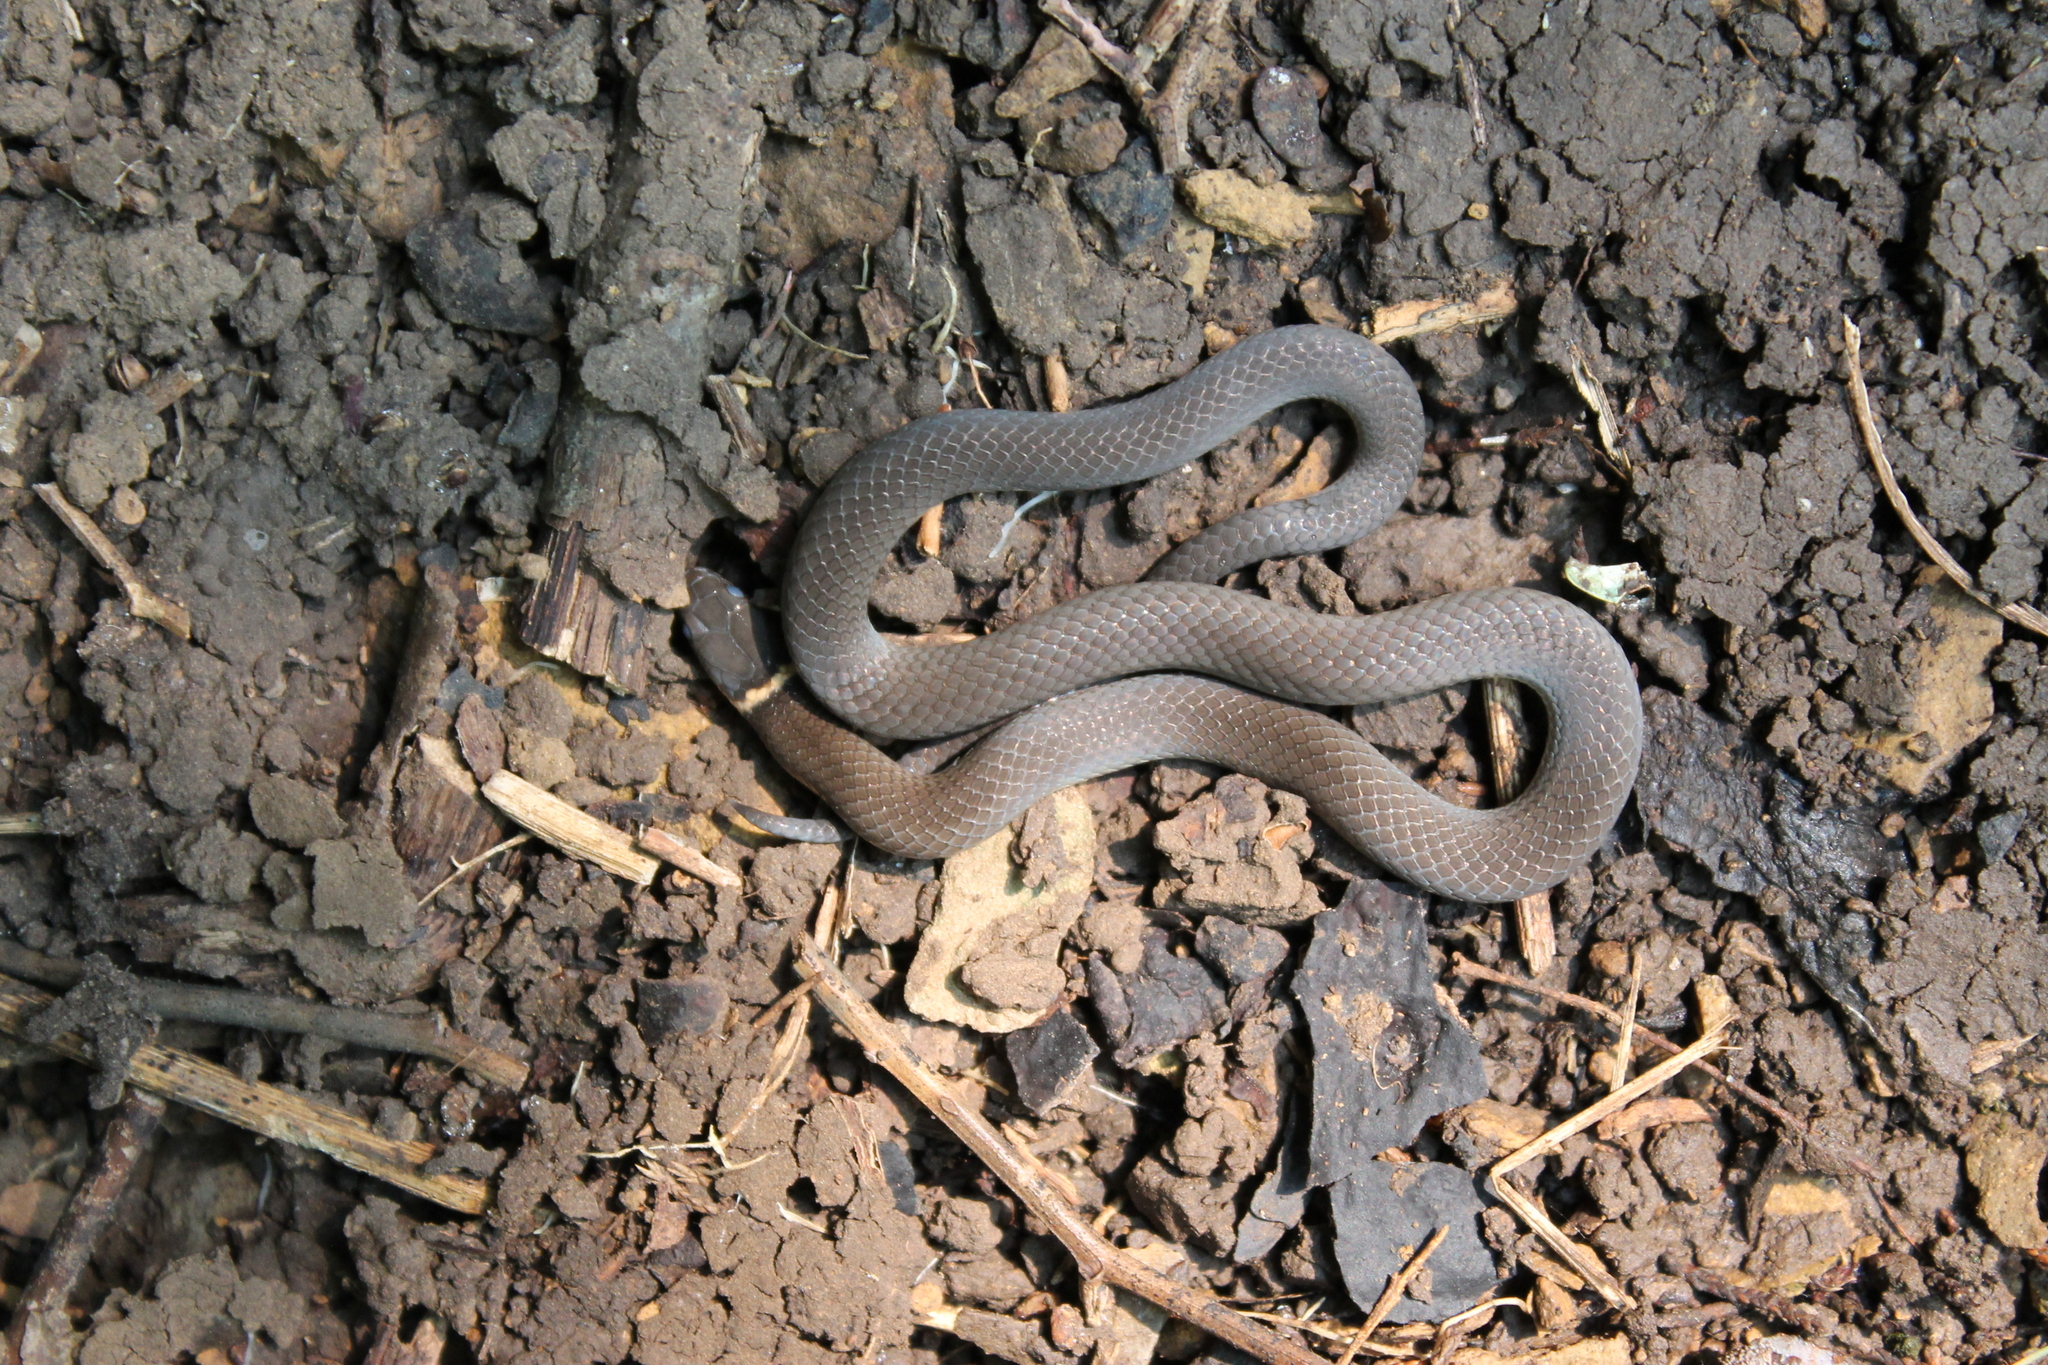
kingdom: Animalia
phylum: Chordata
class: Squamata
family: Colubridae
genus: Diadophis
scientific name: Diadophis punctatus
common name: Ringneck snake
